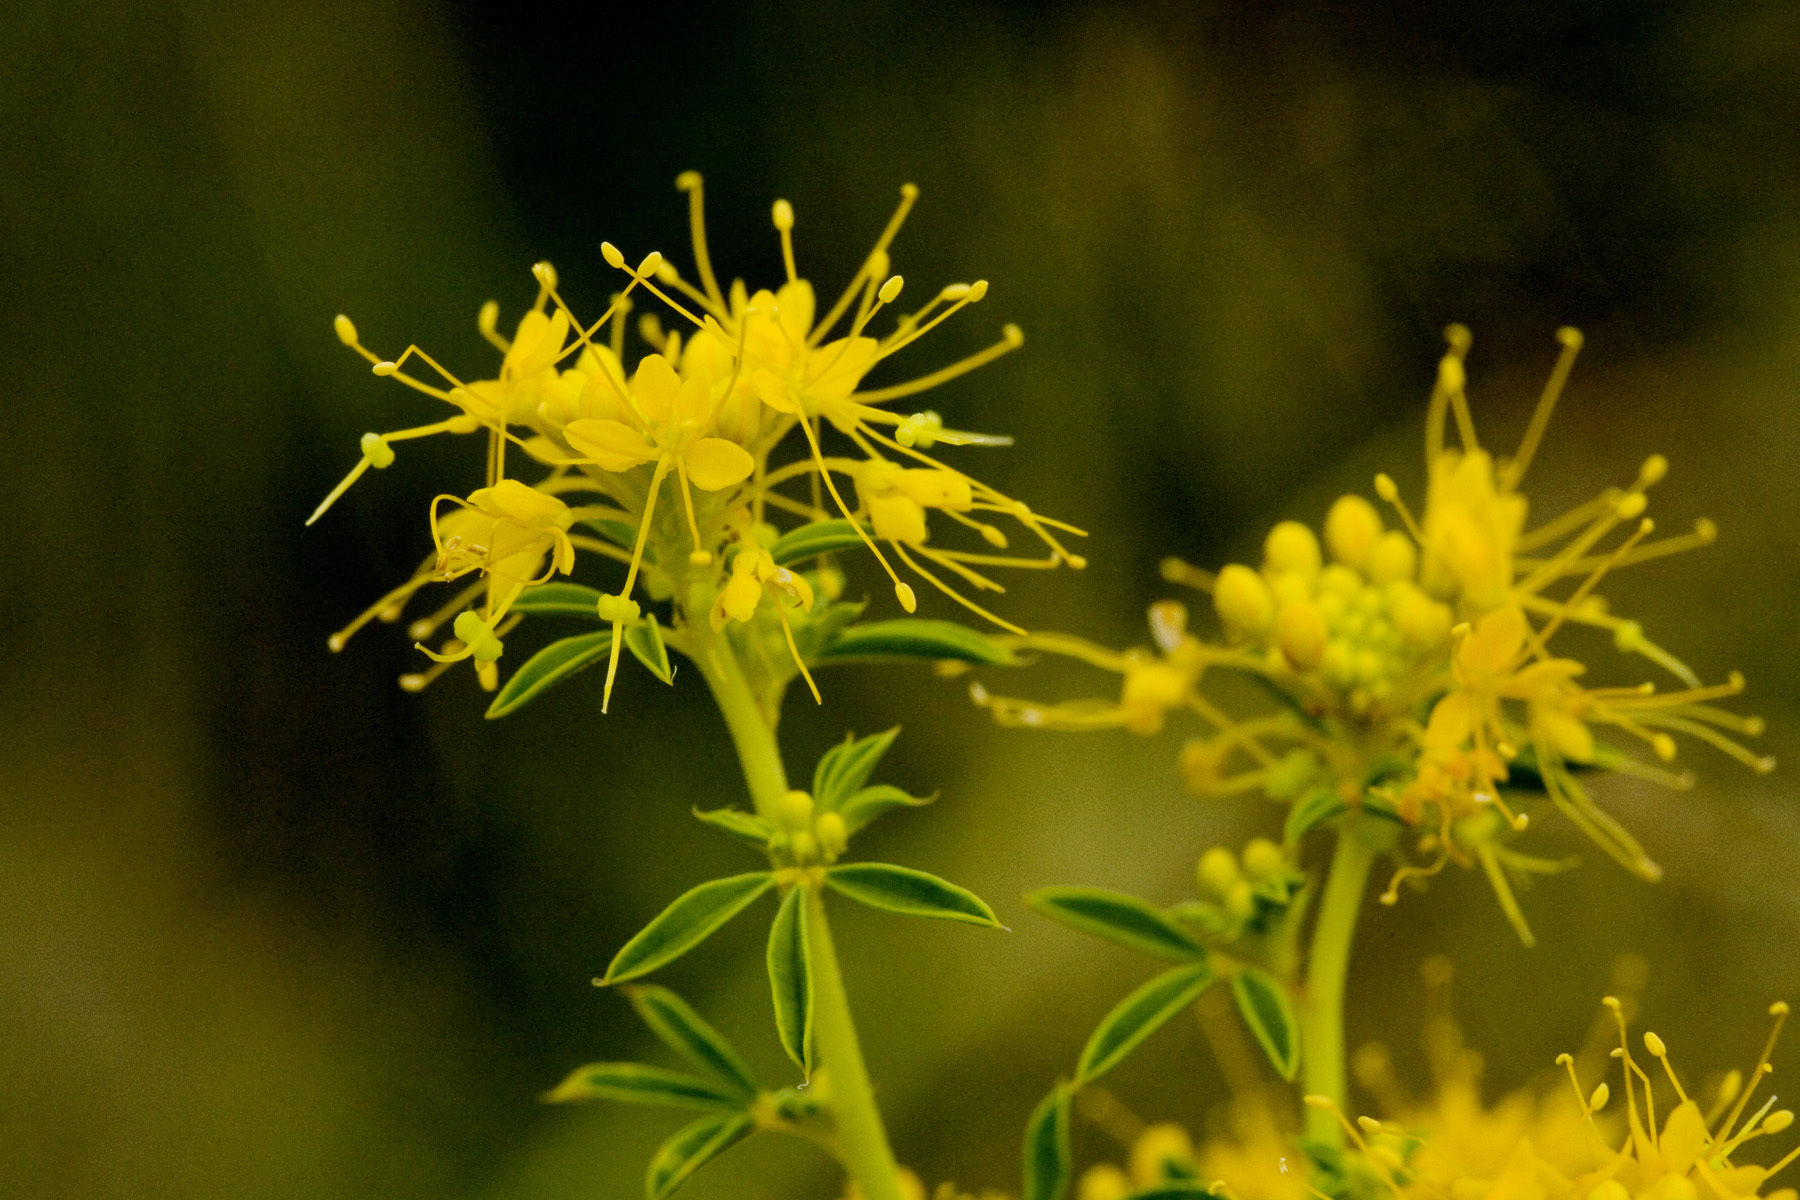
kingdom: Plantae
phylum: Tracheophyta
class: Magnoliopsida
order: Brassicales
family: Cleomaceae
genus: Cleomella
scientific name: Cleomella refracta
